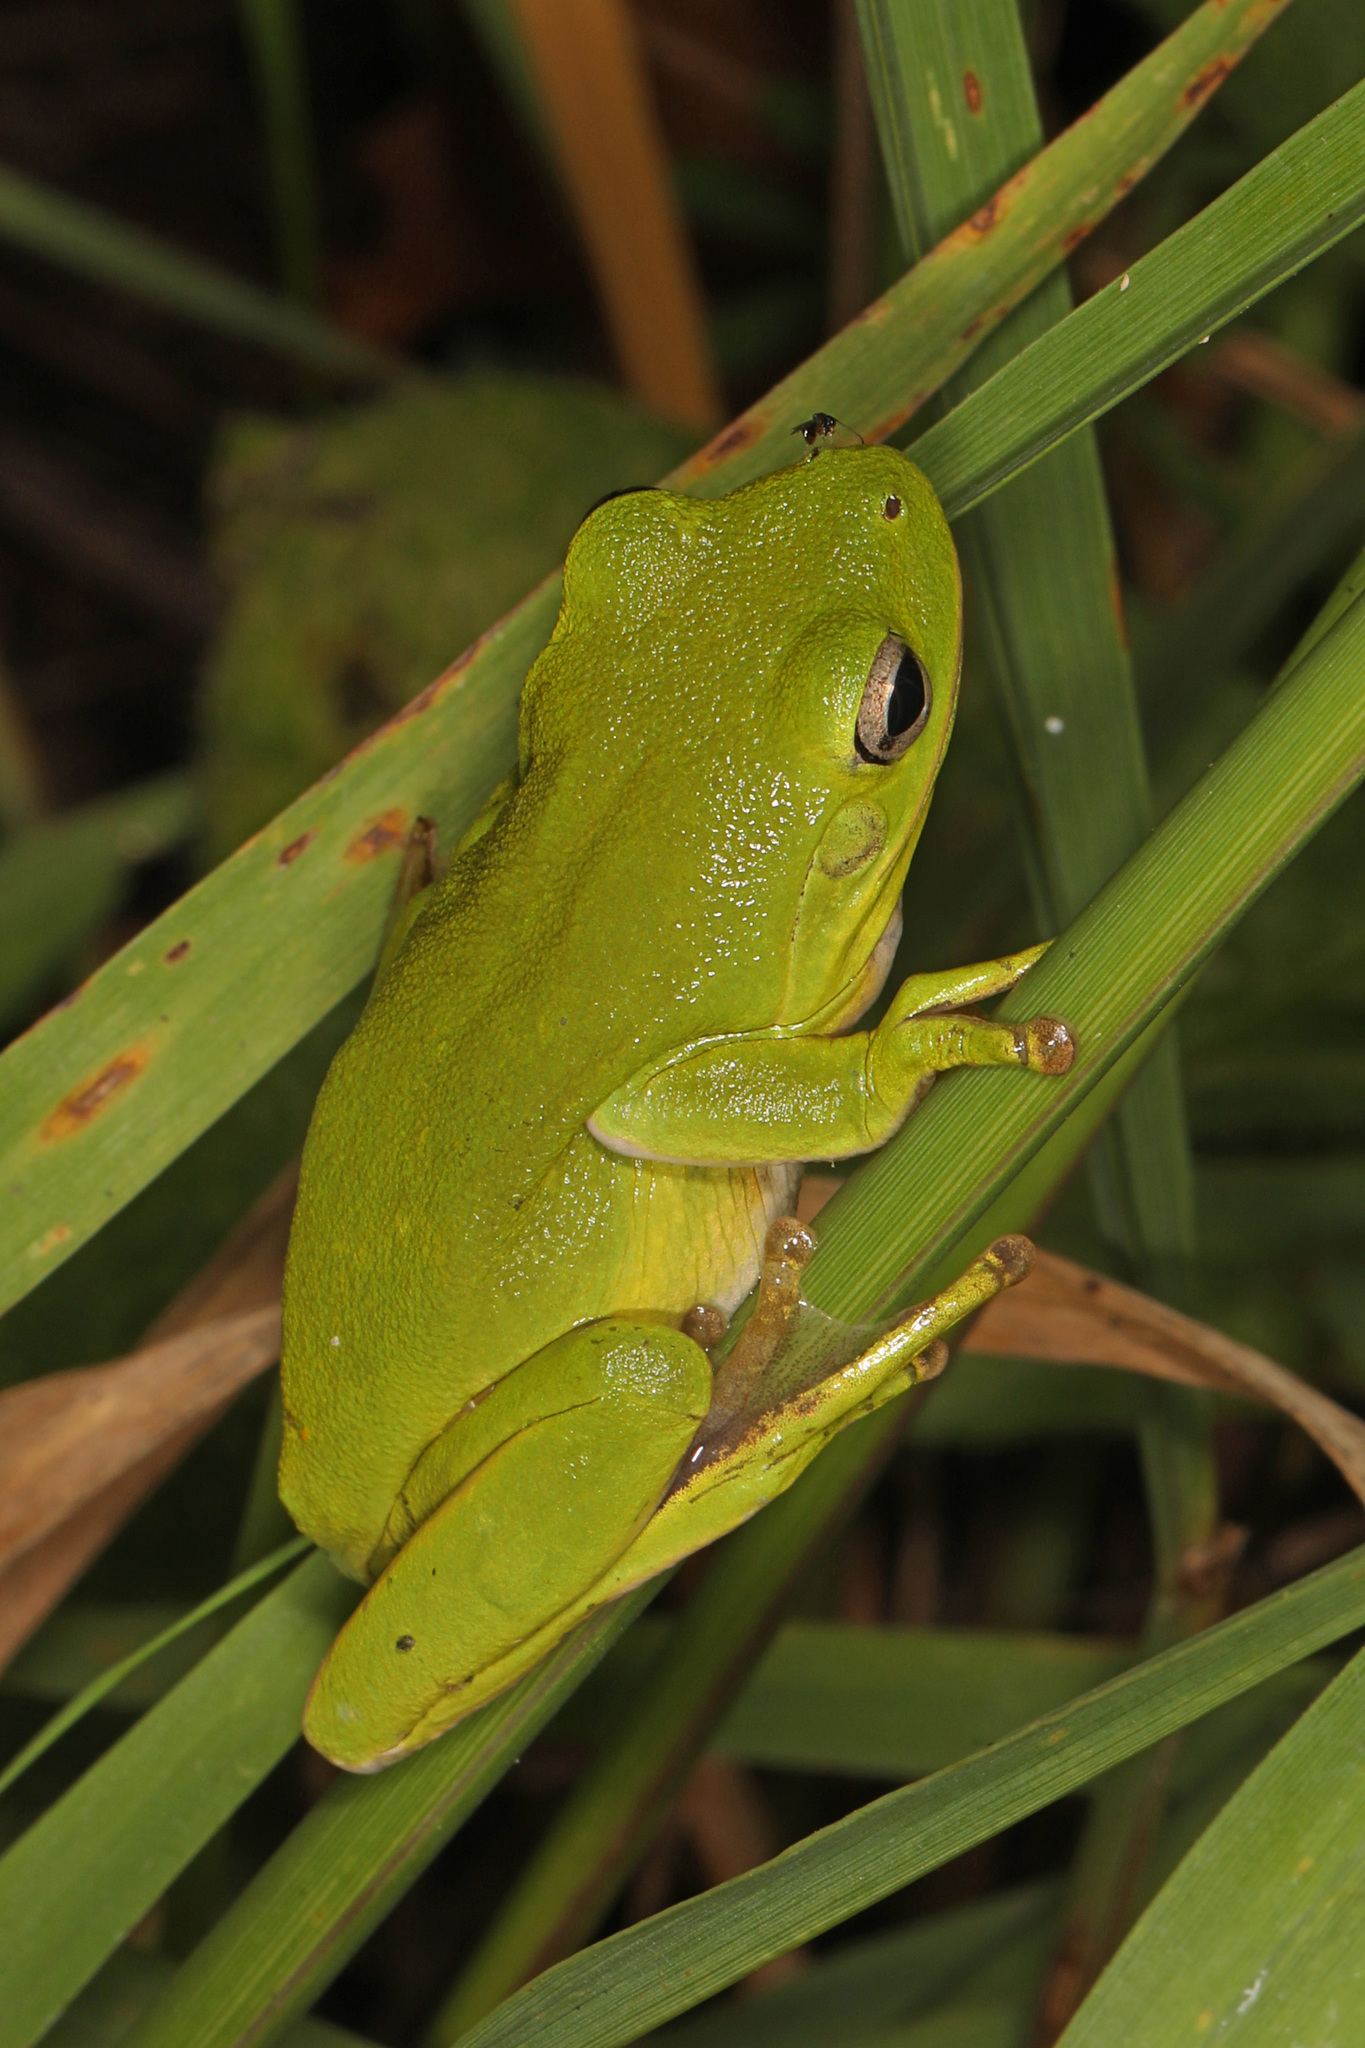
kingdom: Animalia
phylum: Chordata
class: Amphibia
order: Anura
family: Hylidae
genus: Dryophytes
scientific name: Dryophytes cinereus
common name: Green treefrog
